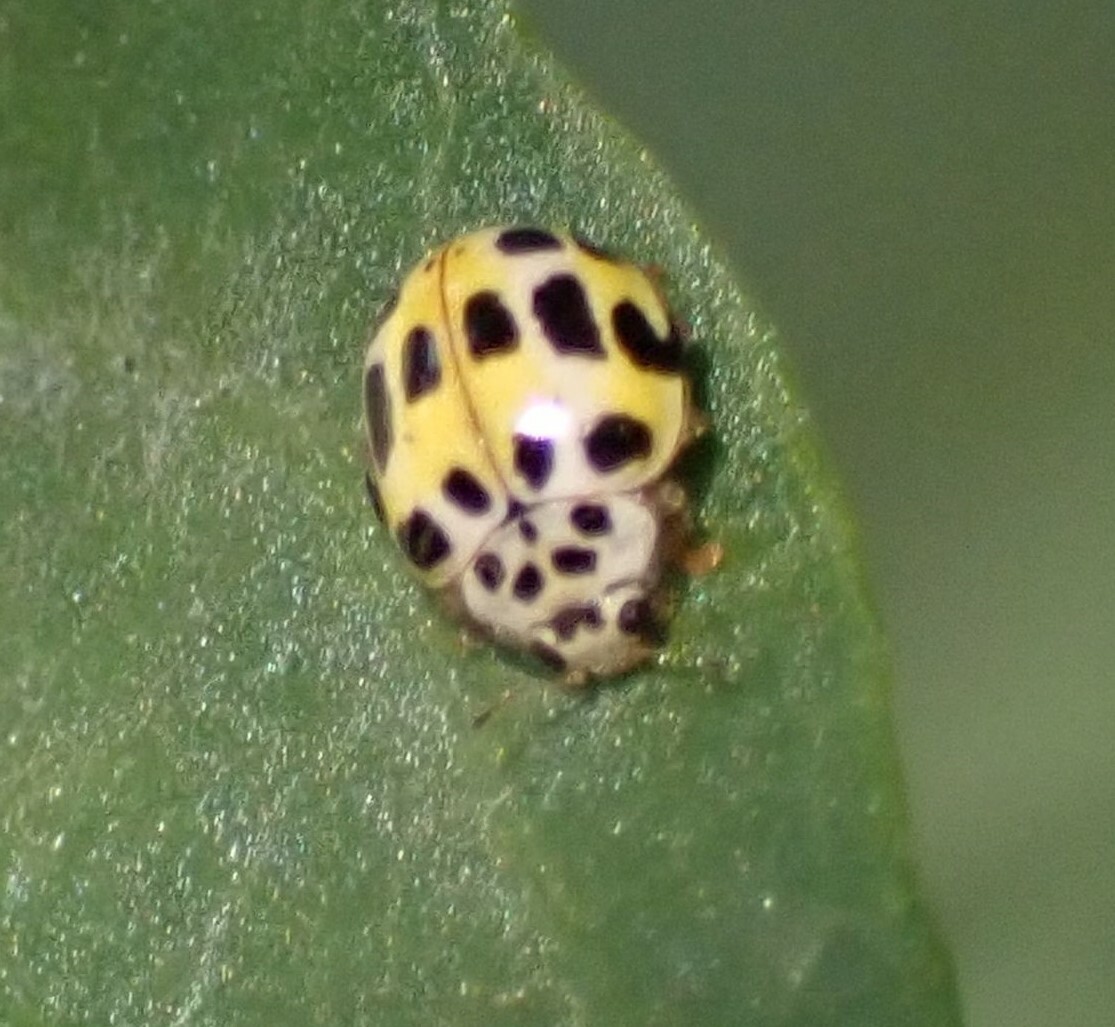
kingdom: Animalia
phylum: Arthropoda
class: Insecta
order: Coleoptera
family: Coccinellidae
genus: Psyllobora
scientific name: Psyllobora variegata
